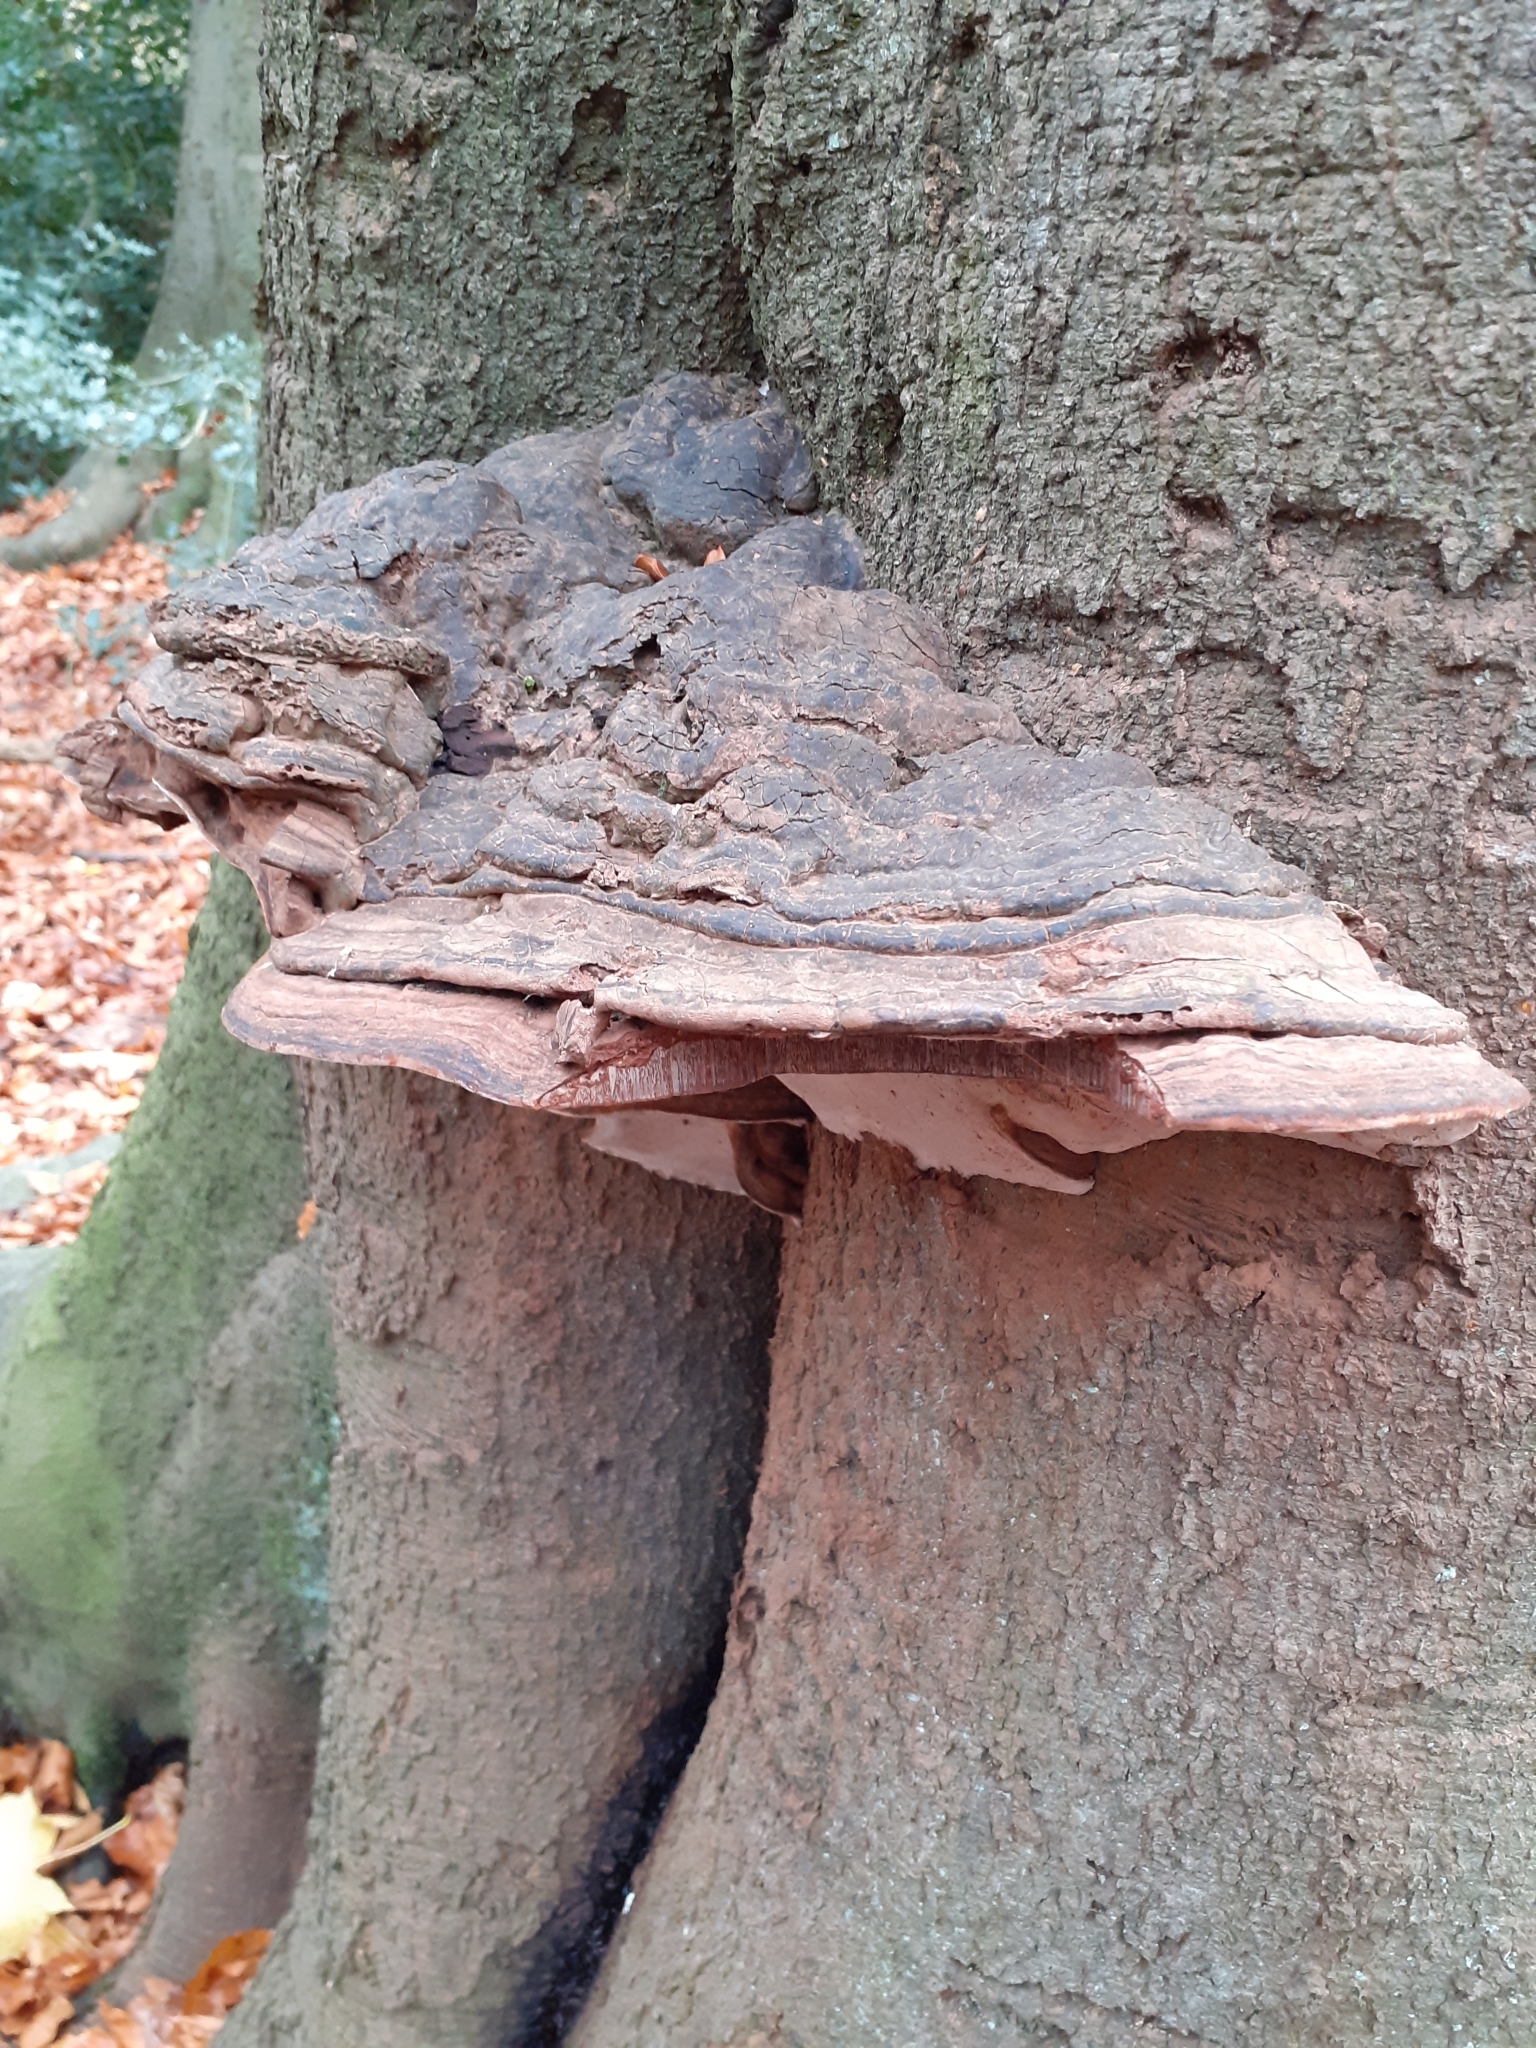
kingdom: Fungi
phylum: Basidiomycota
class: Agaricomycetes
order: Polyporales
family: Polyporaceae
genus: Ganoderma
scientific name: Ganoderma applanatum
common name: Artist's bracket
